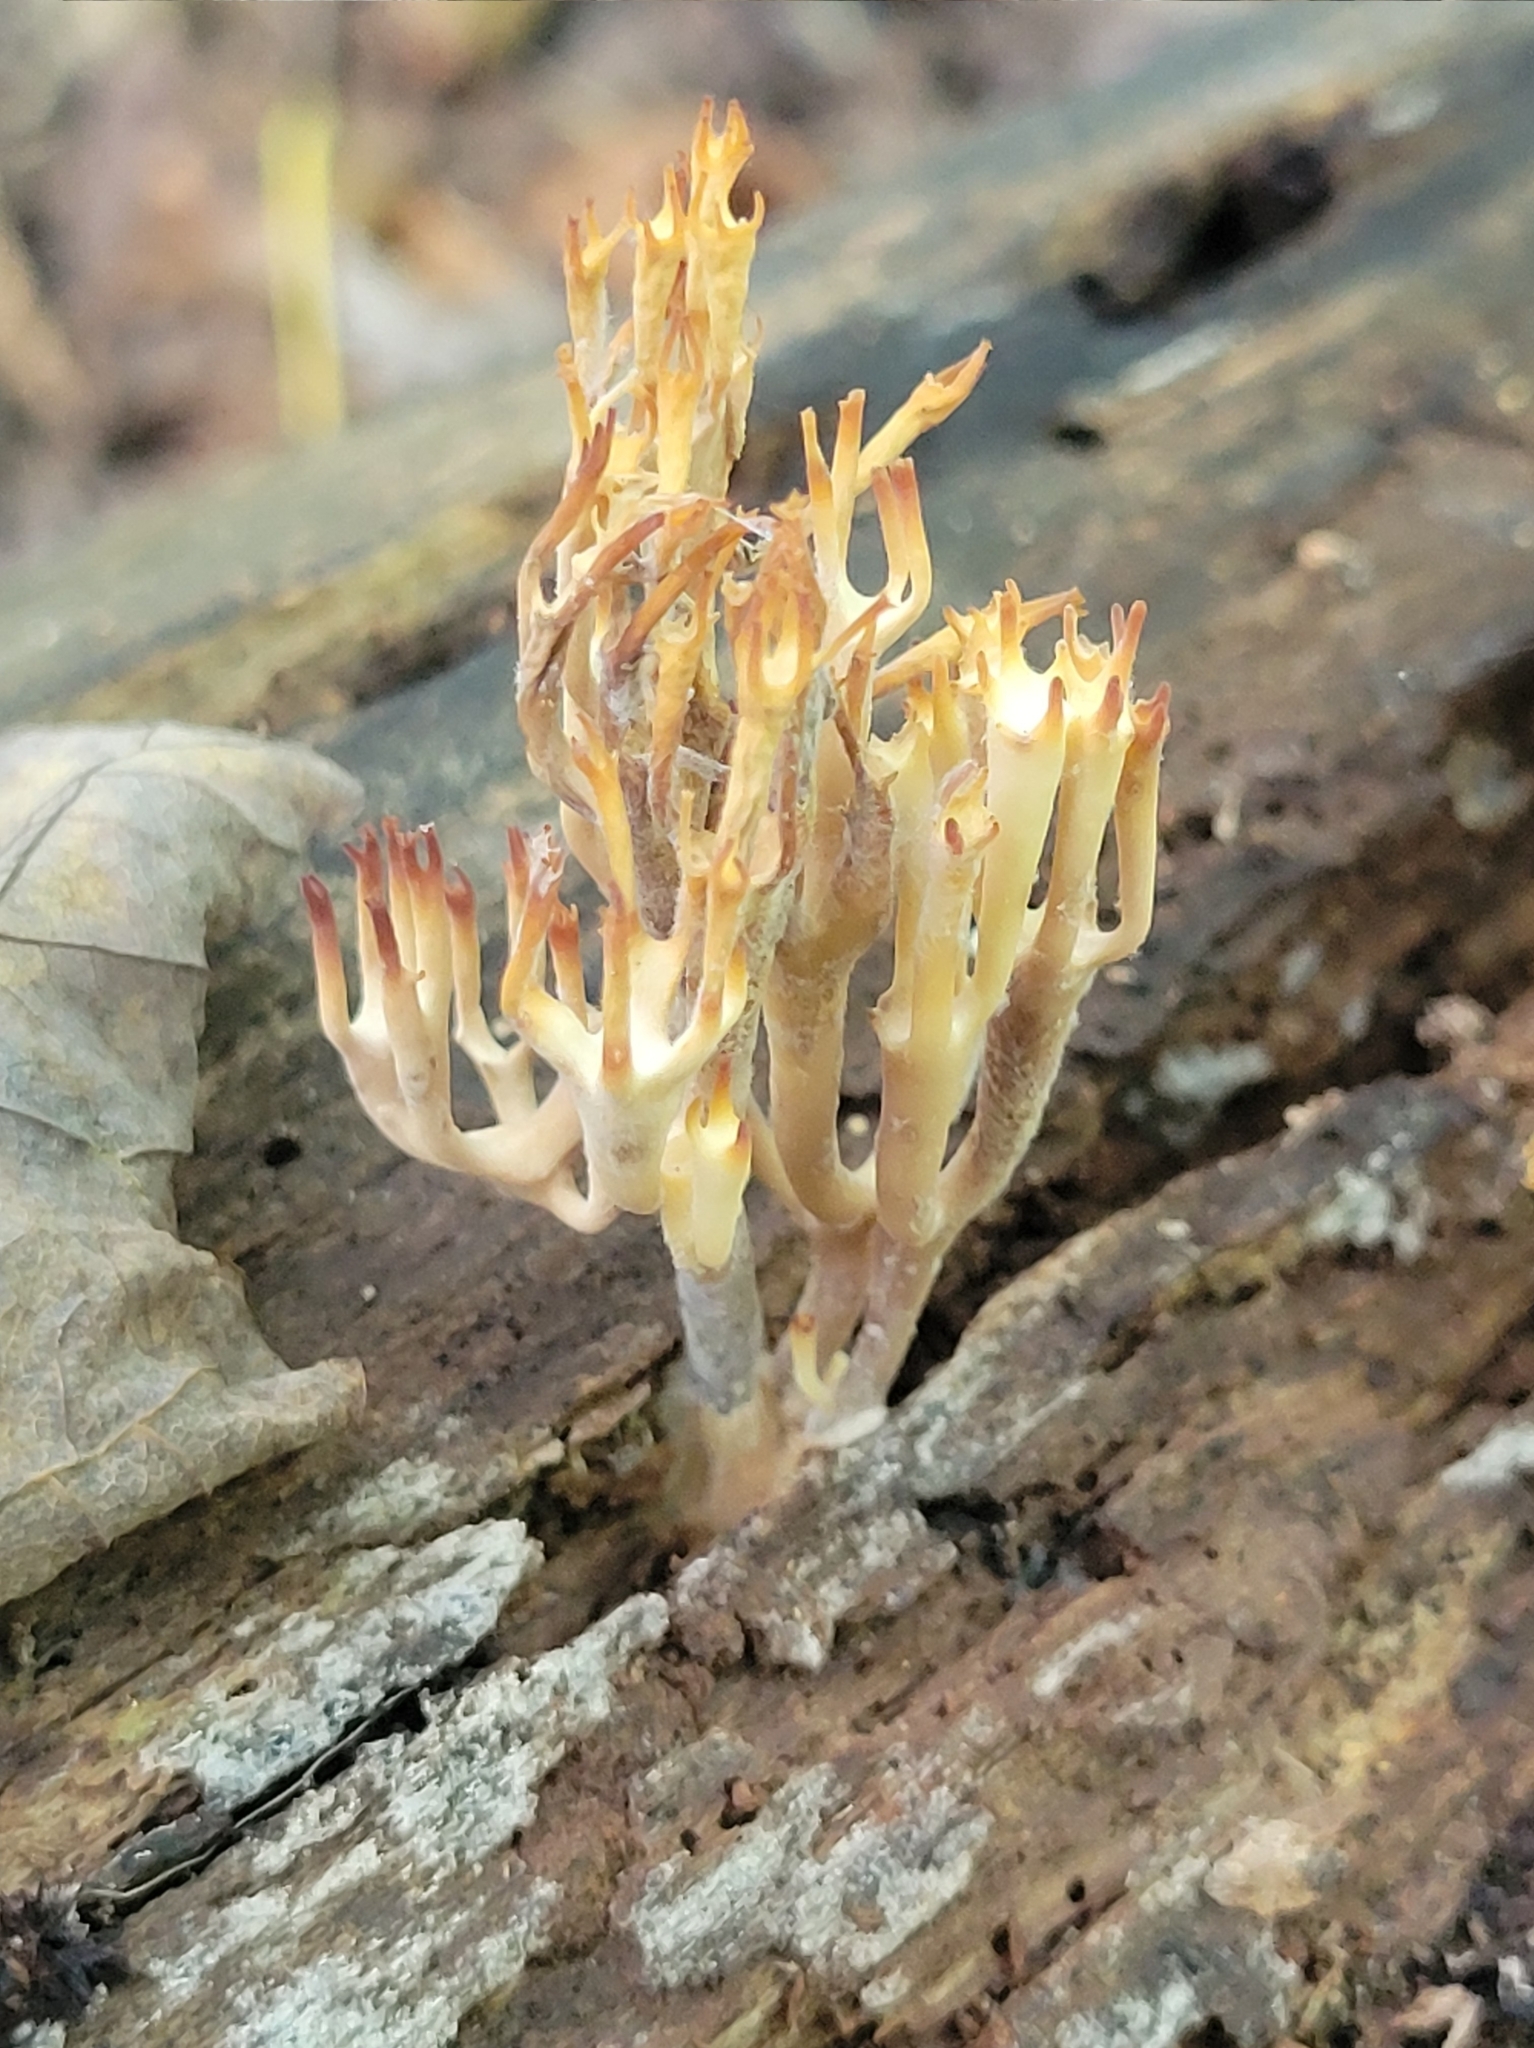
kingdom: Fungi
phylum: Basidiomycota
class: Agaricomycetes
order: Russulales
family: Auriscalpiaceae
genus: Artomyces
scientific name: Artomyces pyxidatus
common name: Crown-tipped coral fungus
